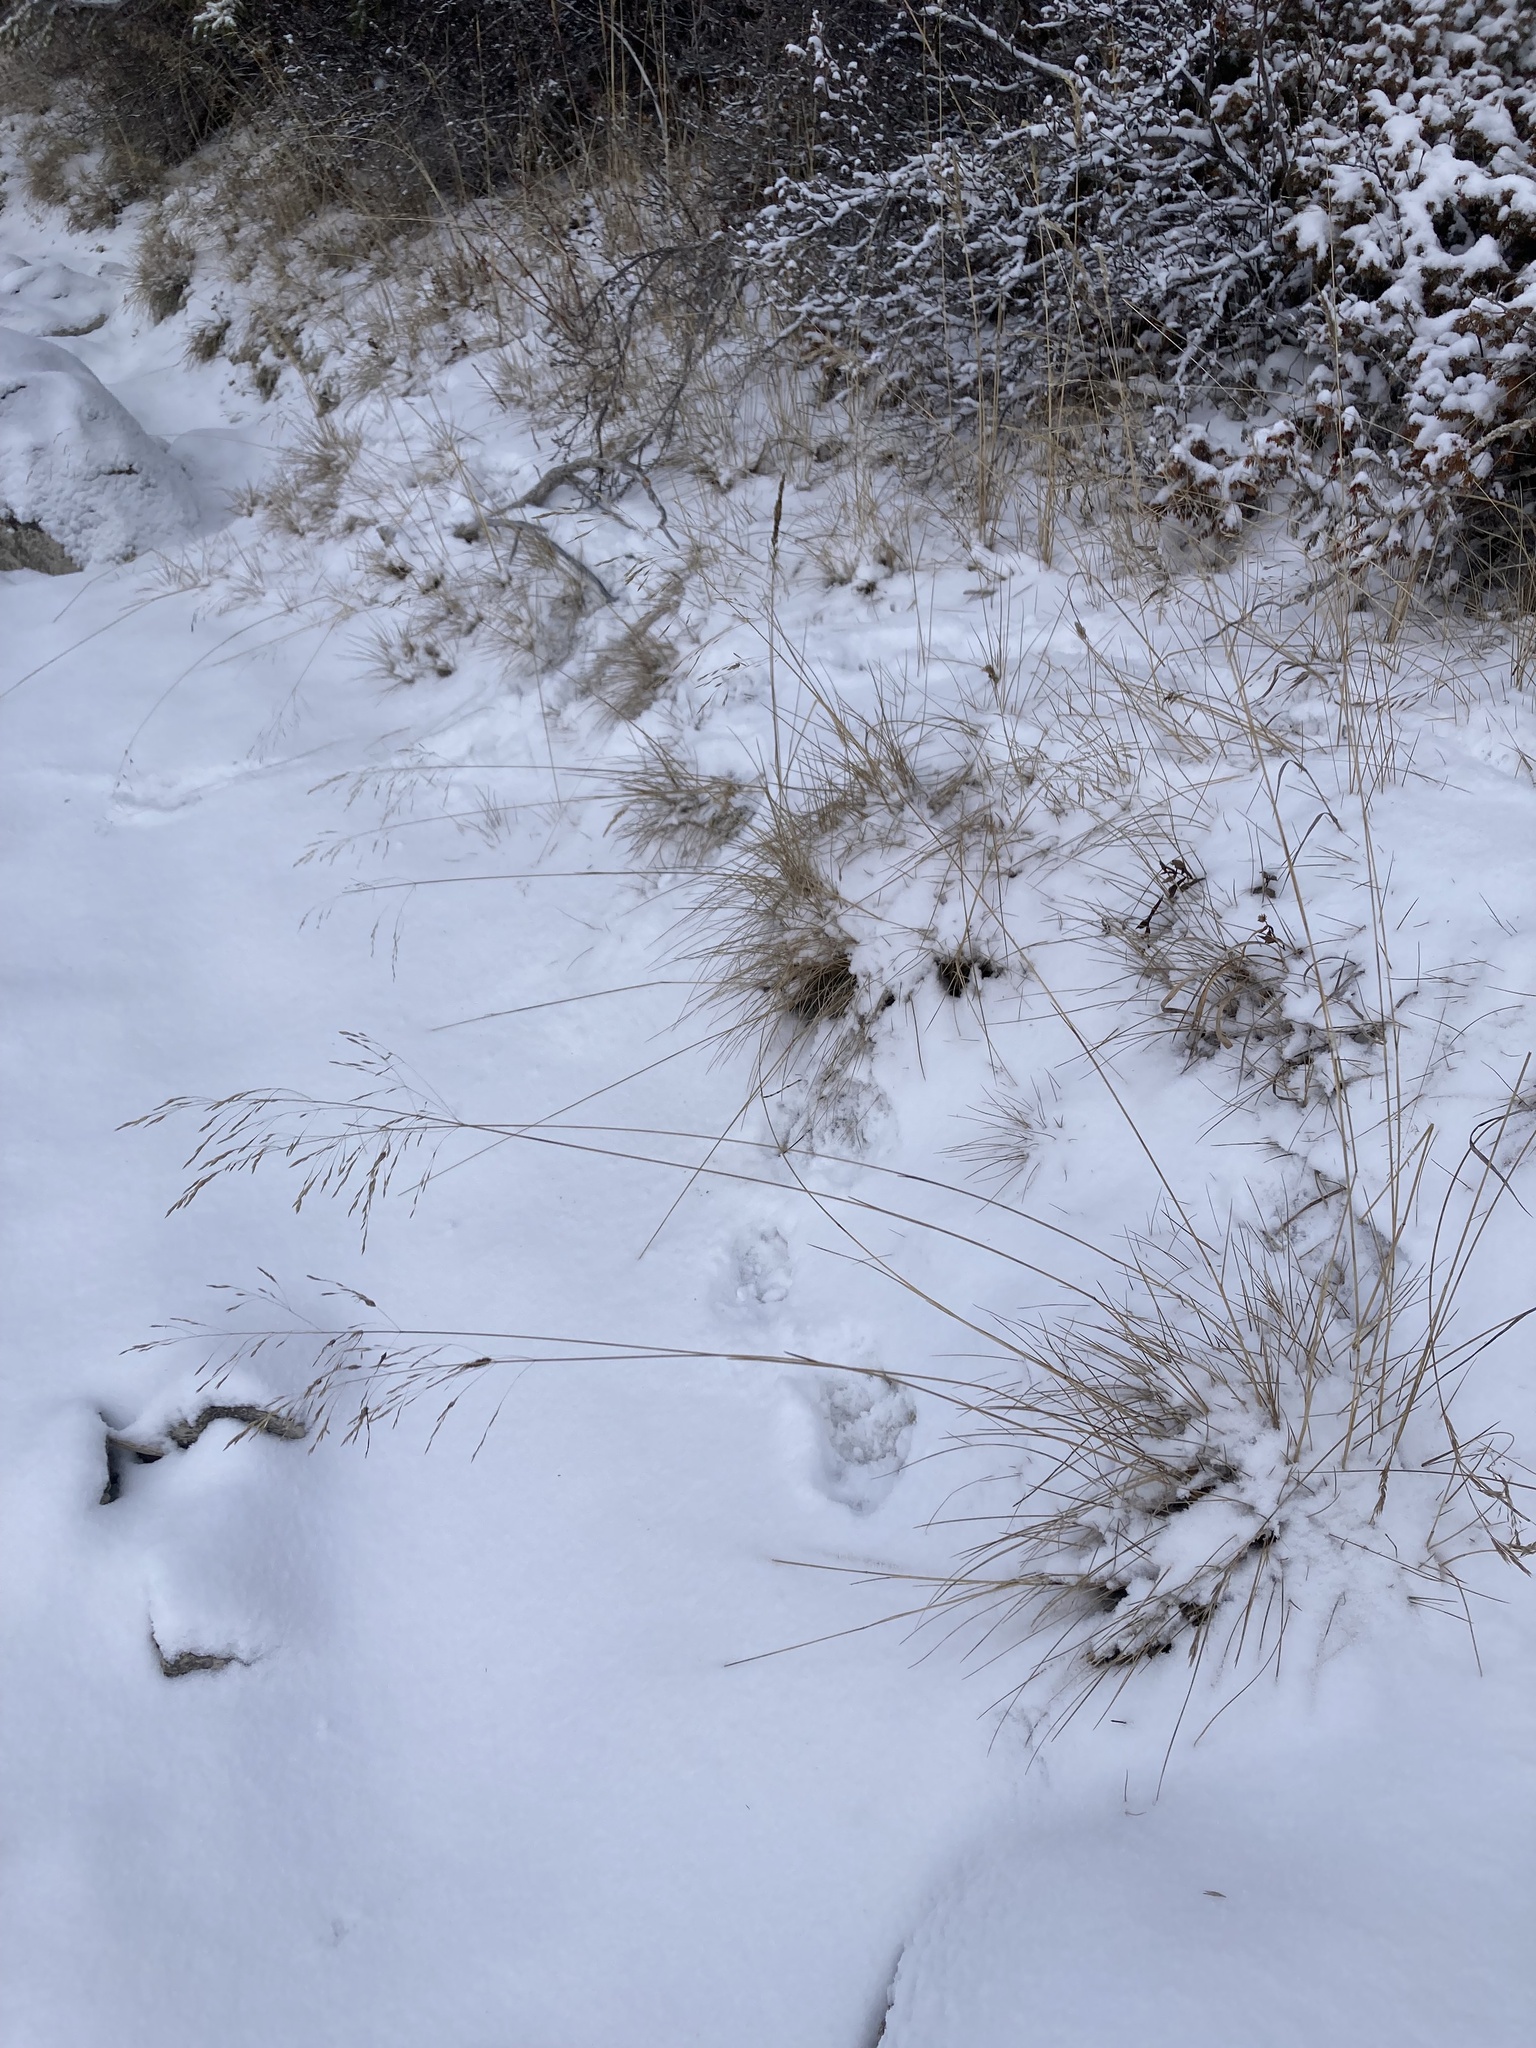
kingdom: Plantae
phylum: Tracheophyta
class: Liliopsida
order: Poales
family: Poaceae
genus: Deschampsia
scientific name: Deschampsia cespitosa
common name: Tufted hair-grass
